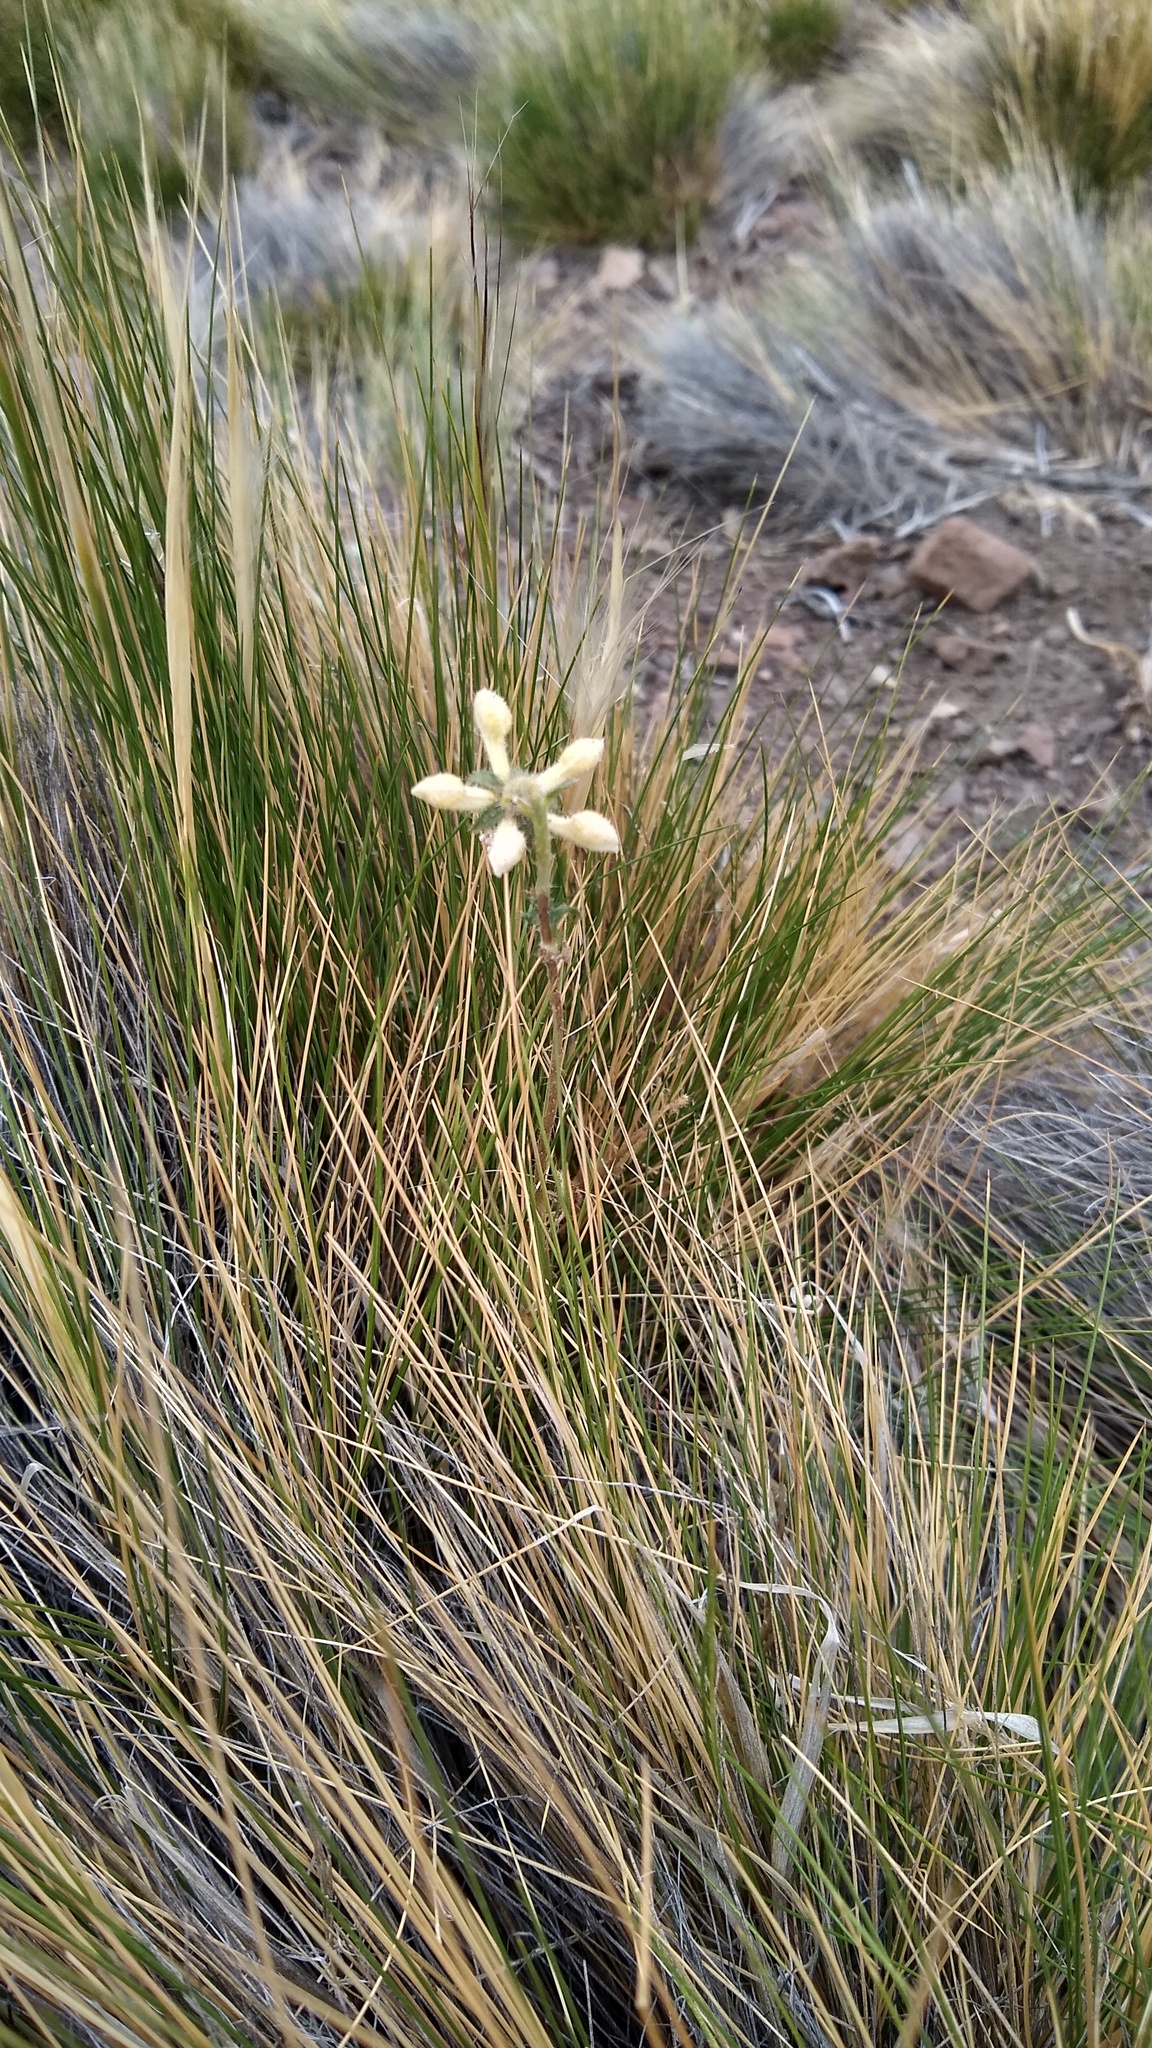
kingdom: Plantae
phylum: Tracheophyta
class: Magnoliopsida
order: Cornales
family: Loasaceae
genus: Blumenbachia
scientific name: Blumenbachia dissecta
